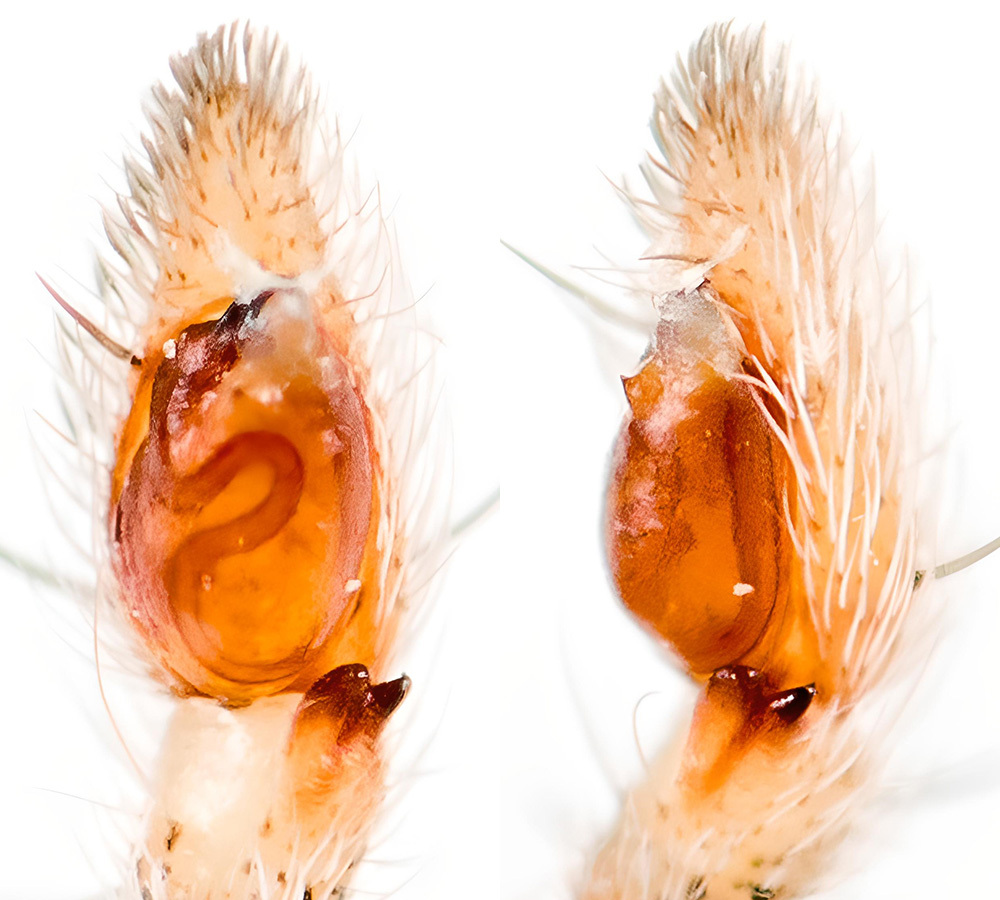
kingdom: Animalia
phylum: Arthropoda
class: Arachnida
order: Araneae
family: Philodromidae
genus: Thanatus
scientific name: Thanatus fabricii
